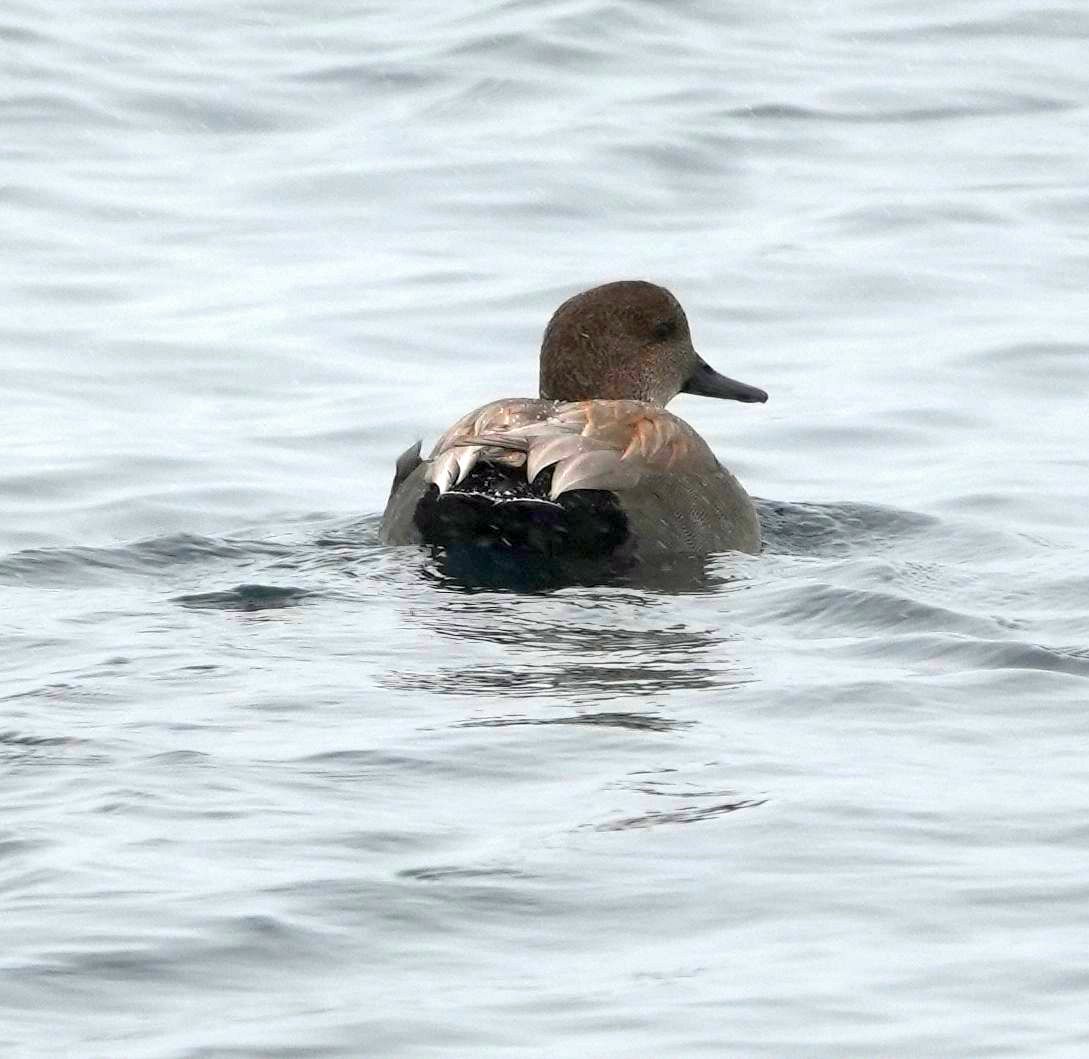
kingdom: Animalia
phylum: Chordata
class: Aves
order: Anseriformes
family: Anatidae
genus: Mareca
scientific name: Mareca strepera
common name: Gadwall
